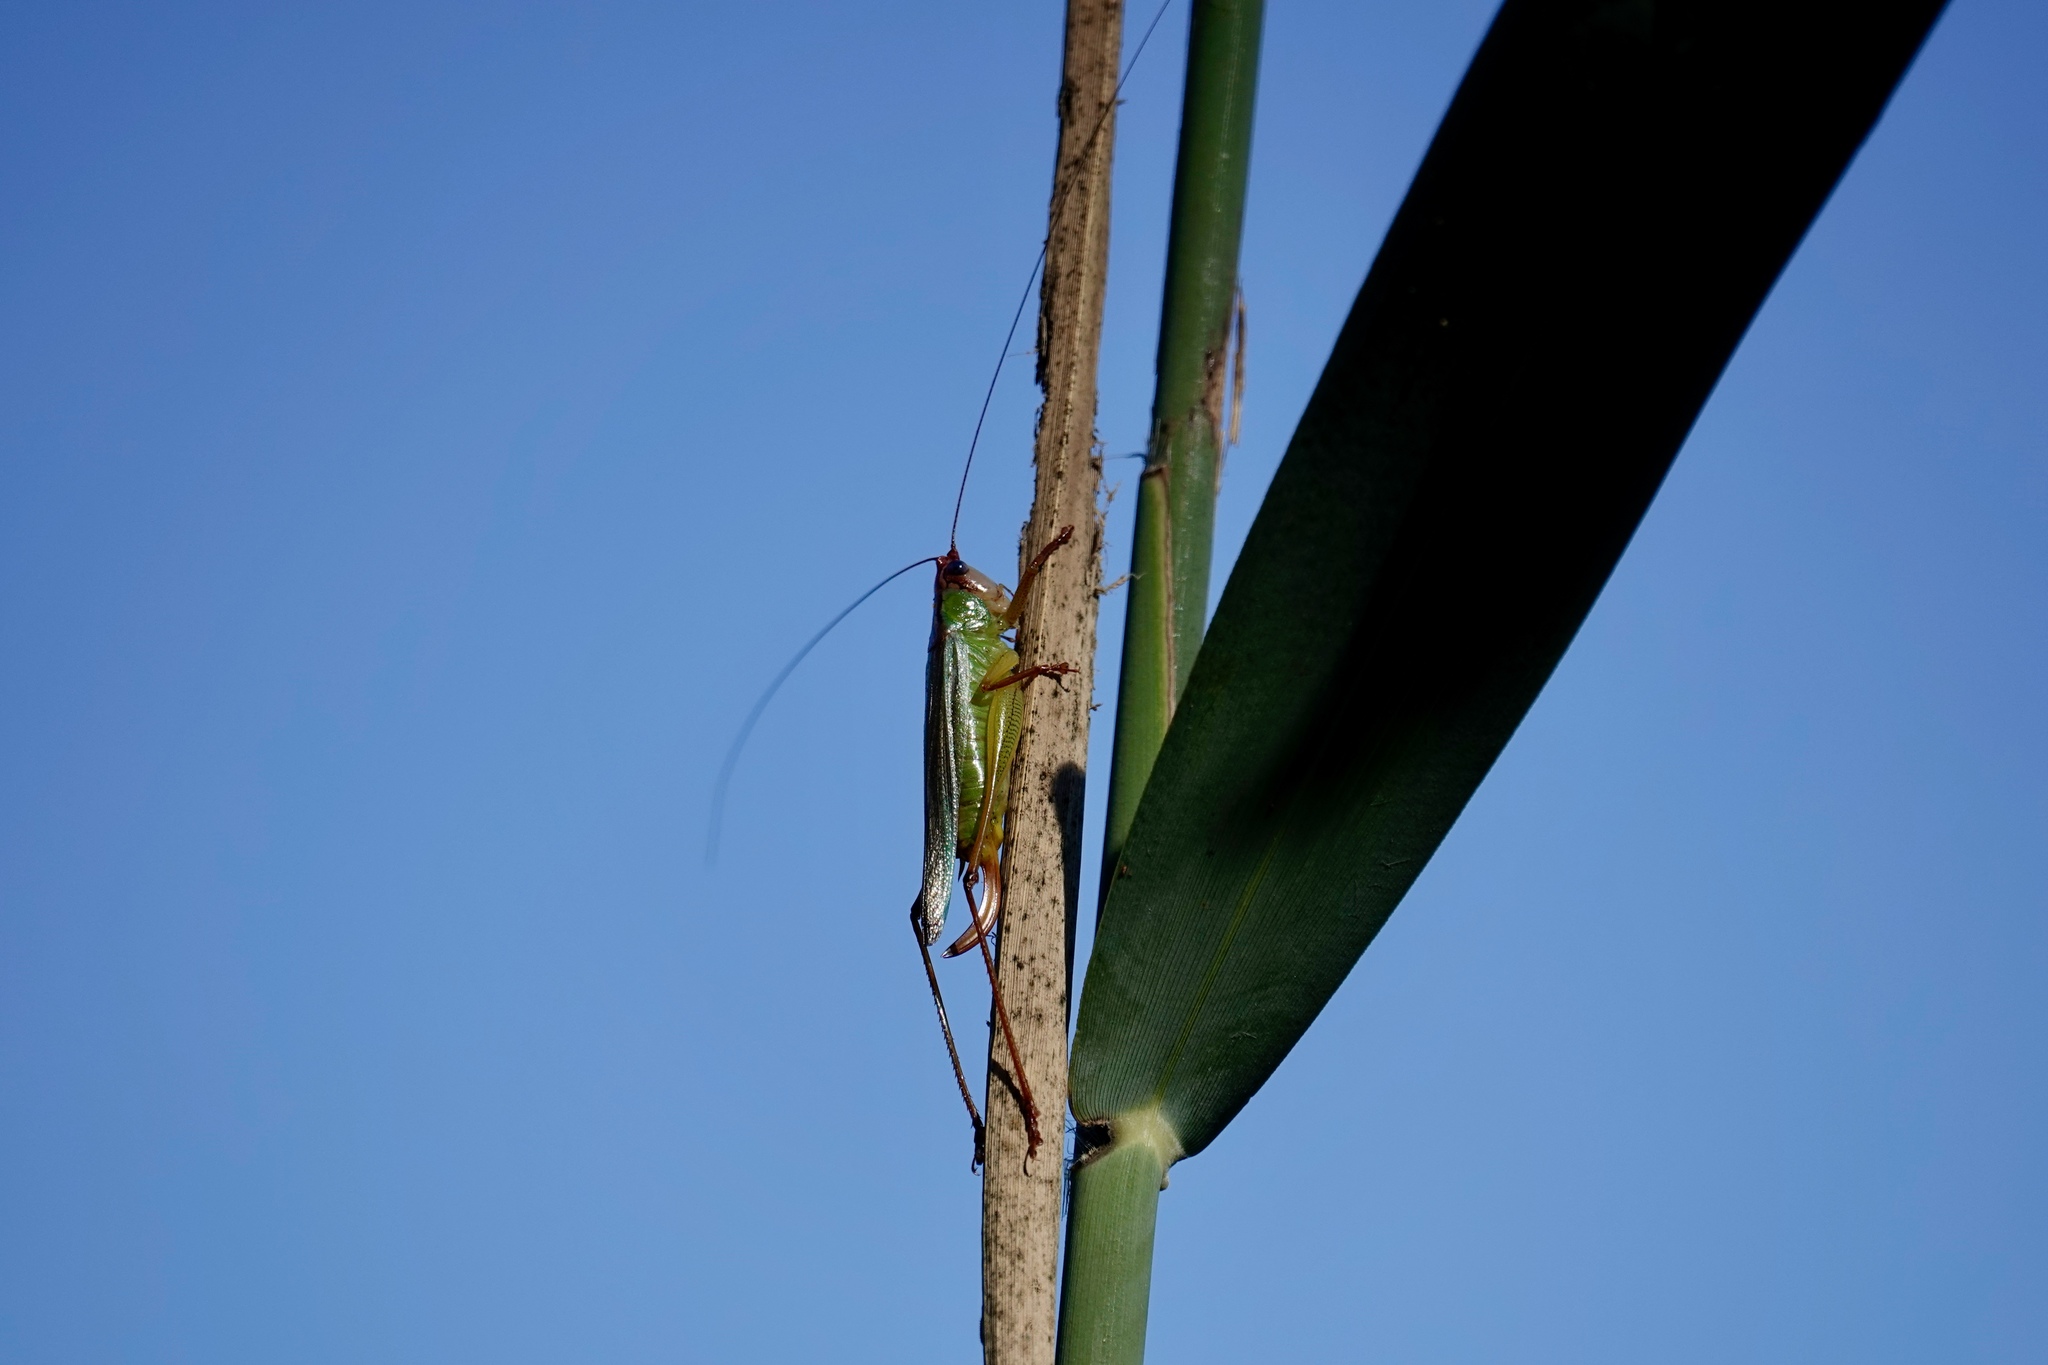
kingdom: Animalia
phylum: Arthropoda
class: Insecta
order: Orthoptera
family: Tettigoniidae
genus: Orchelimum
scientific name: Orchelimum pulchellum
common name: Handsome meadow katydid
